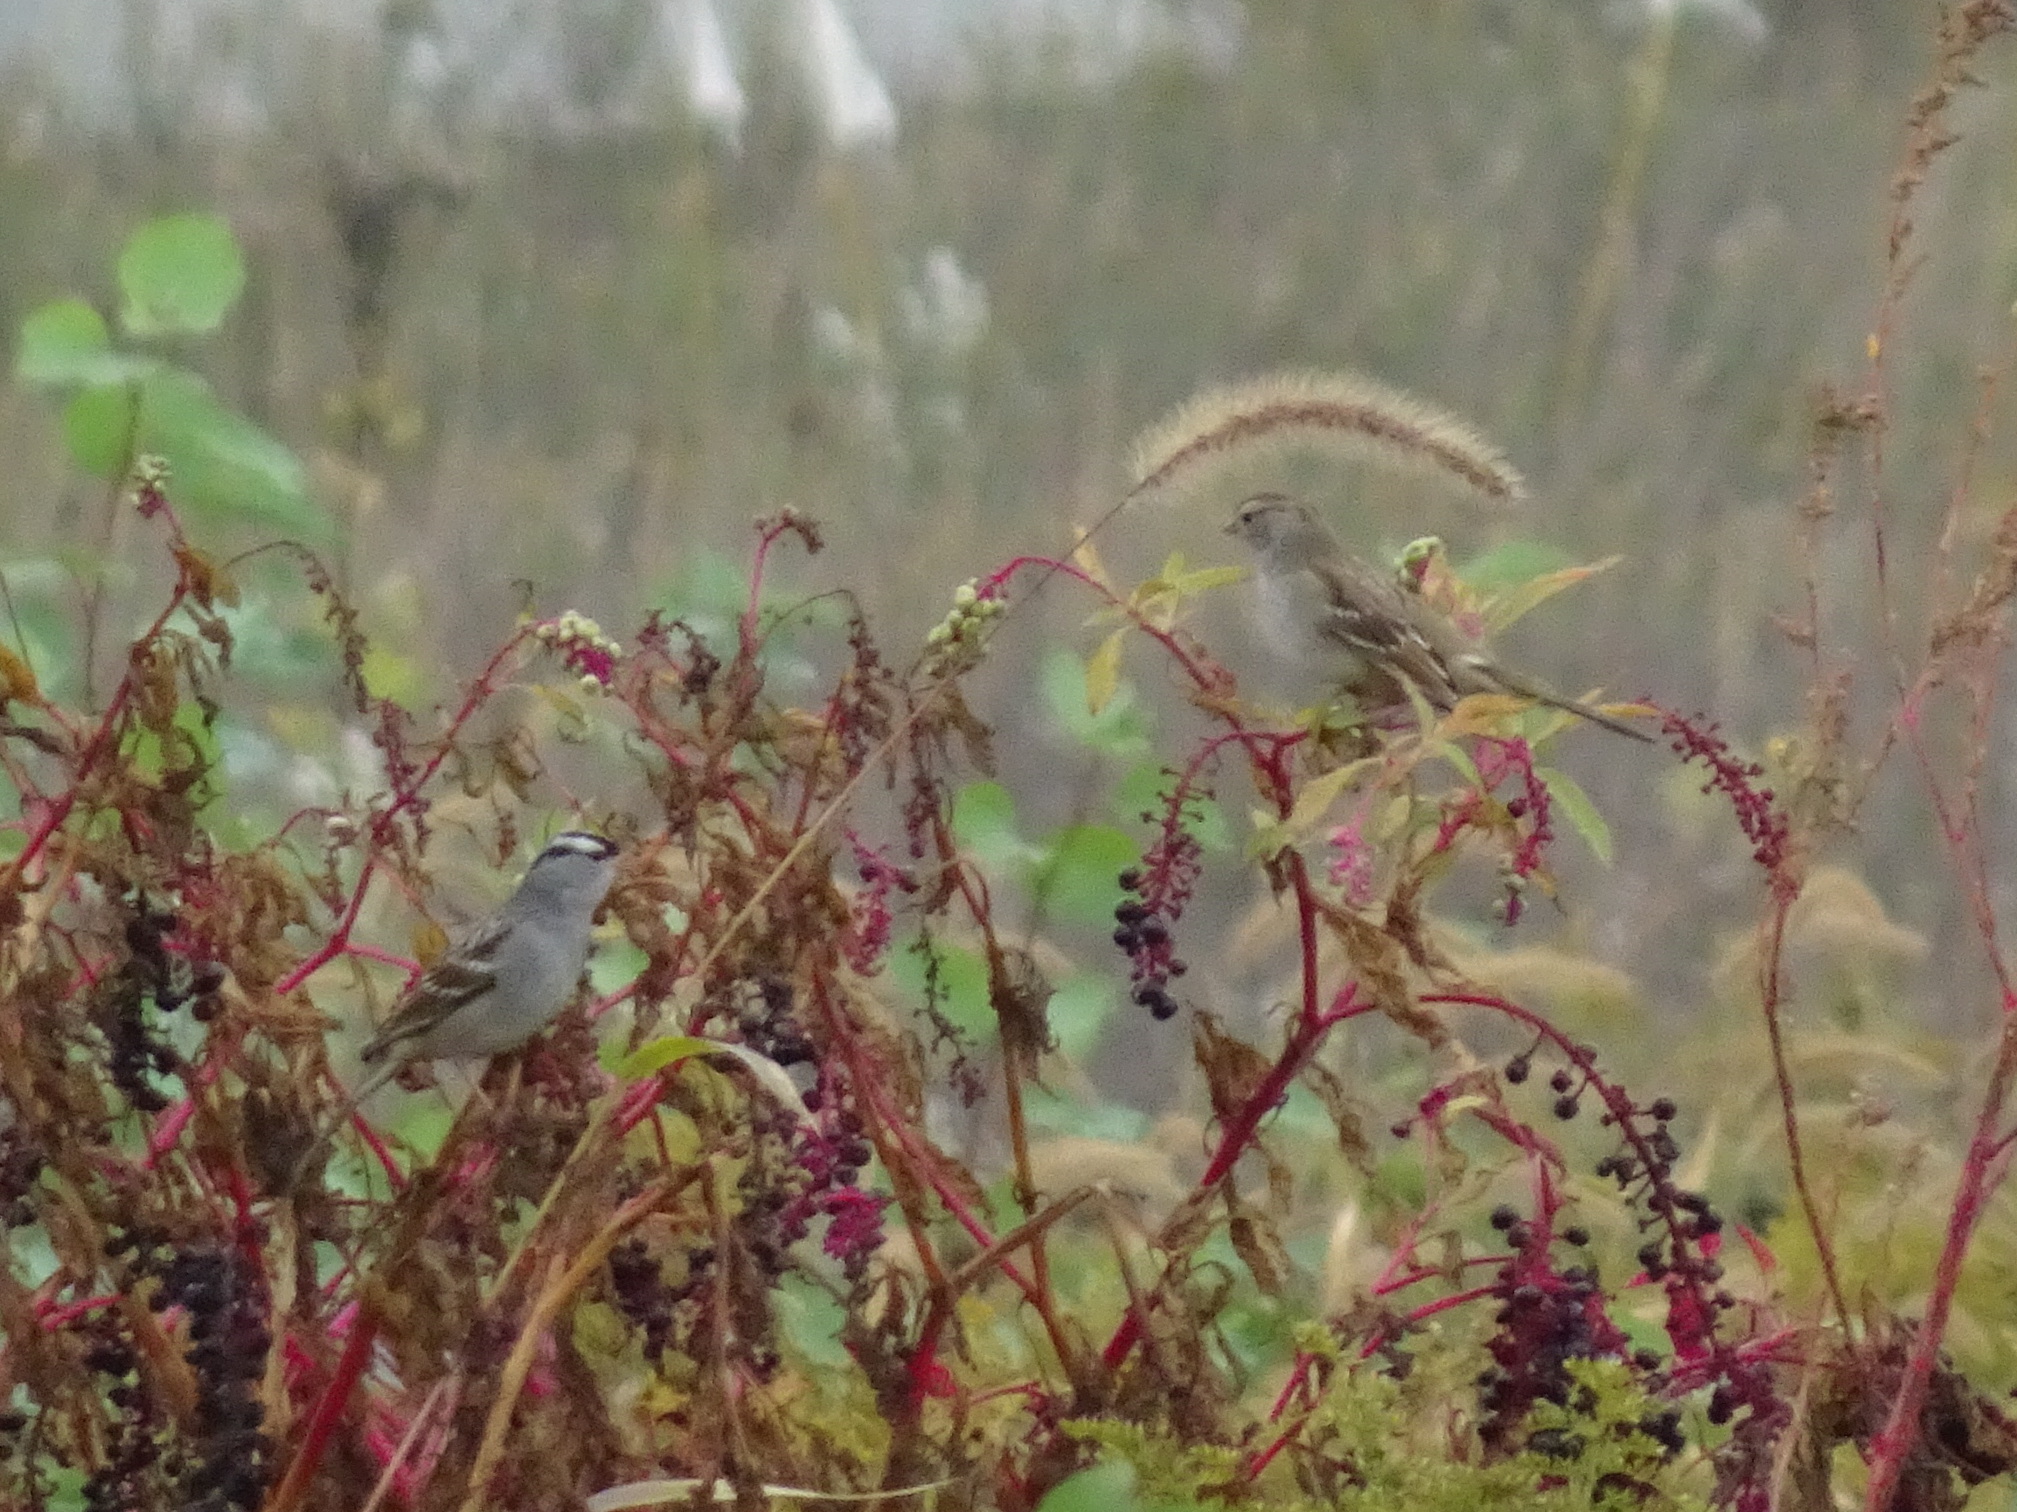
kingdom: Animalia
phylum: Chordata
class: Aves
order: Passeriformes
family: Passerellidae
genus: Zonotrichia
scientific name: Zonotrichia leucophrys
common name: White-crowned sparrow
